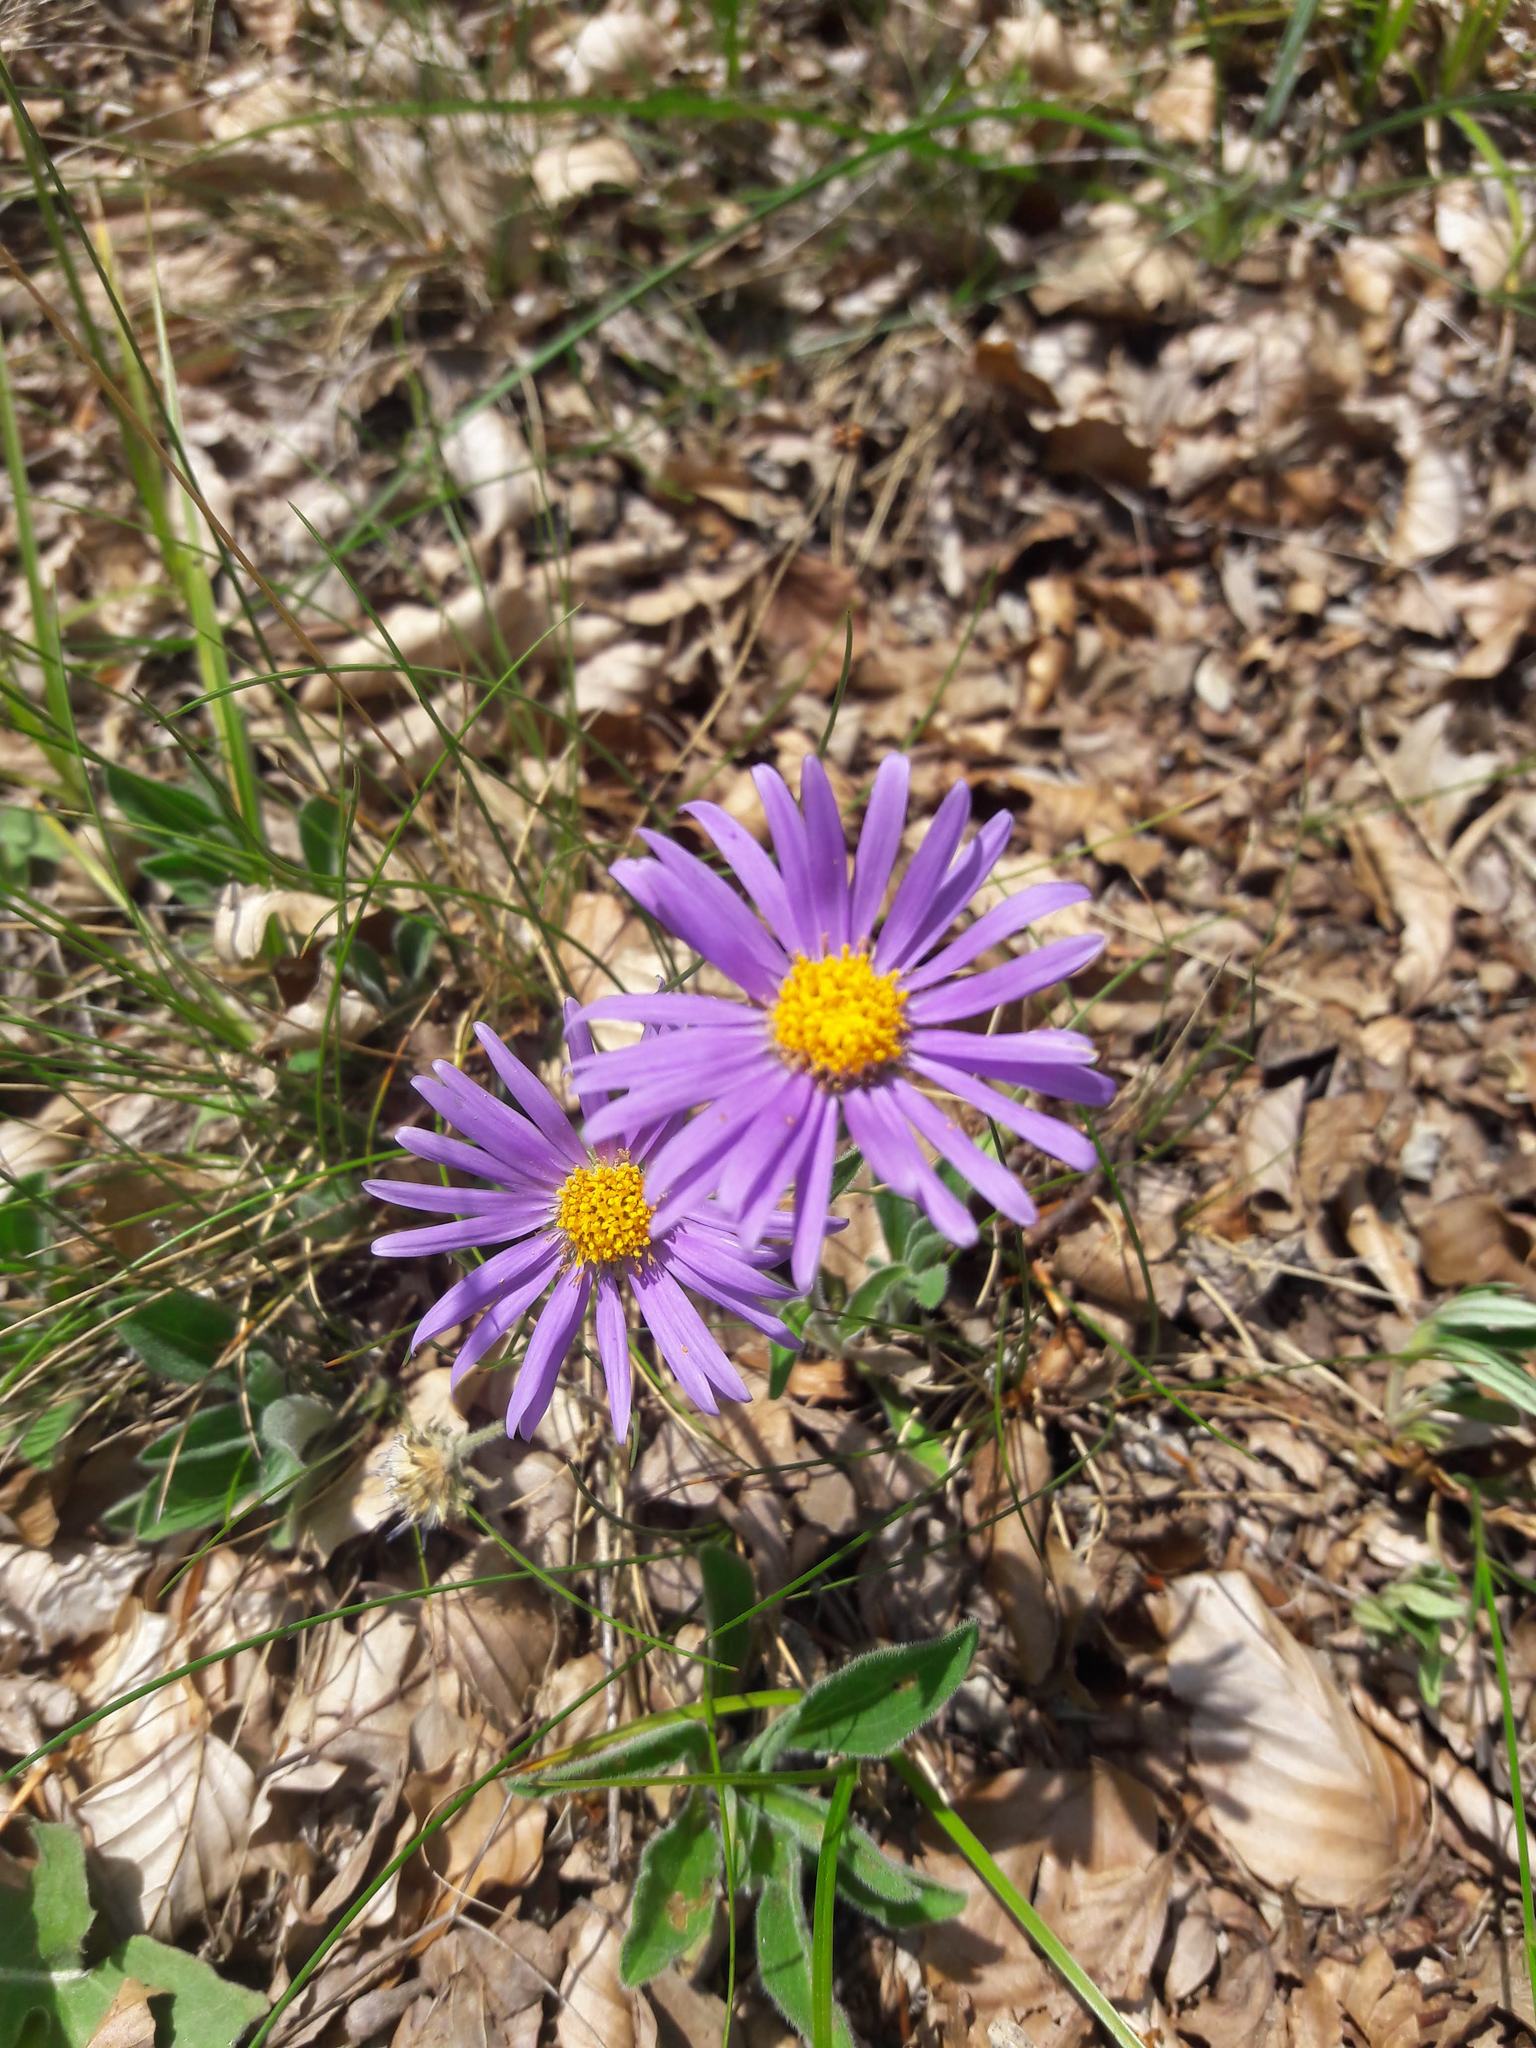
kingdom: Plantae
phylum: Tracheophyta
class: Magnoliopsida
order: Asterales
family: Asteraceae
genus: Aster
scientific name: Aster alpinus
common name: Alpine aster
